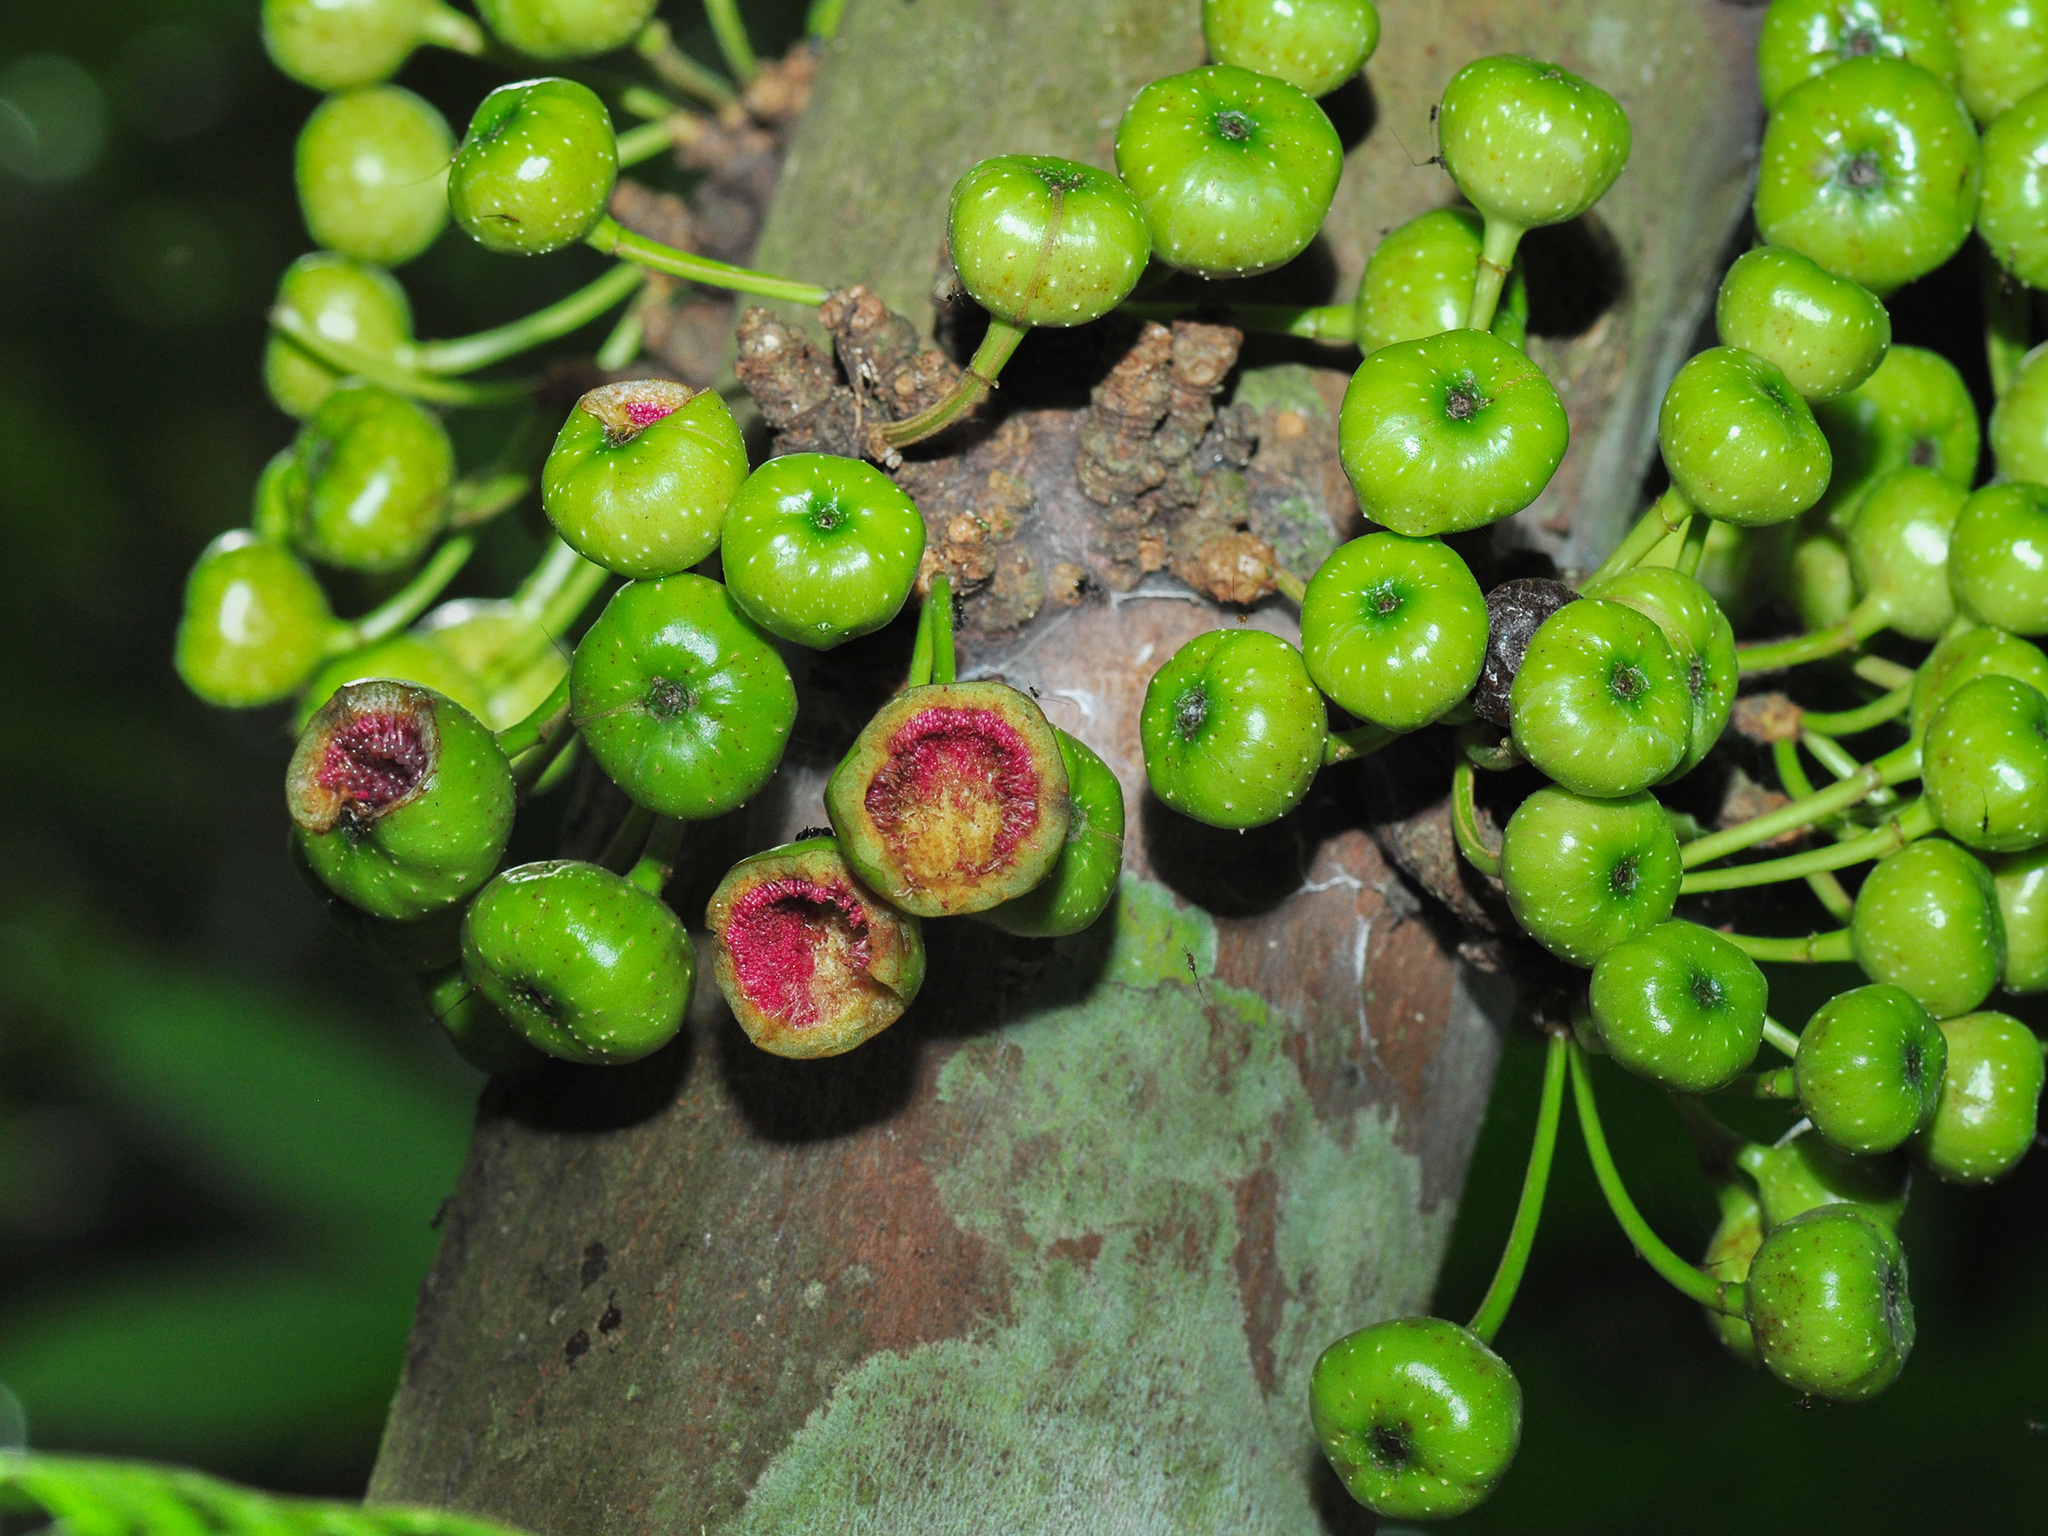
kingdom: Plantae
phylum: Tracheophyta
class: Magnoliopsida
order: Rosales
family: Moraceae
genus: Ficus
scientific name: Ficus fistulosa
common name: Figs
